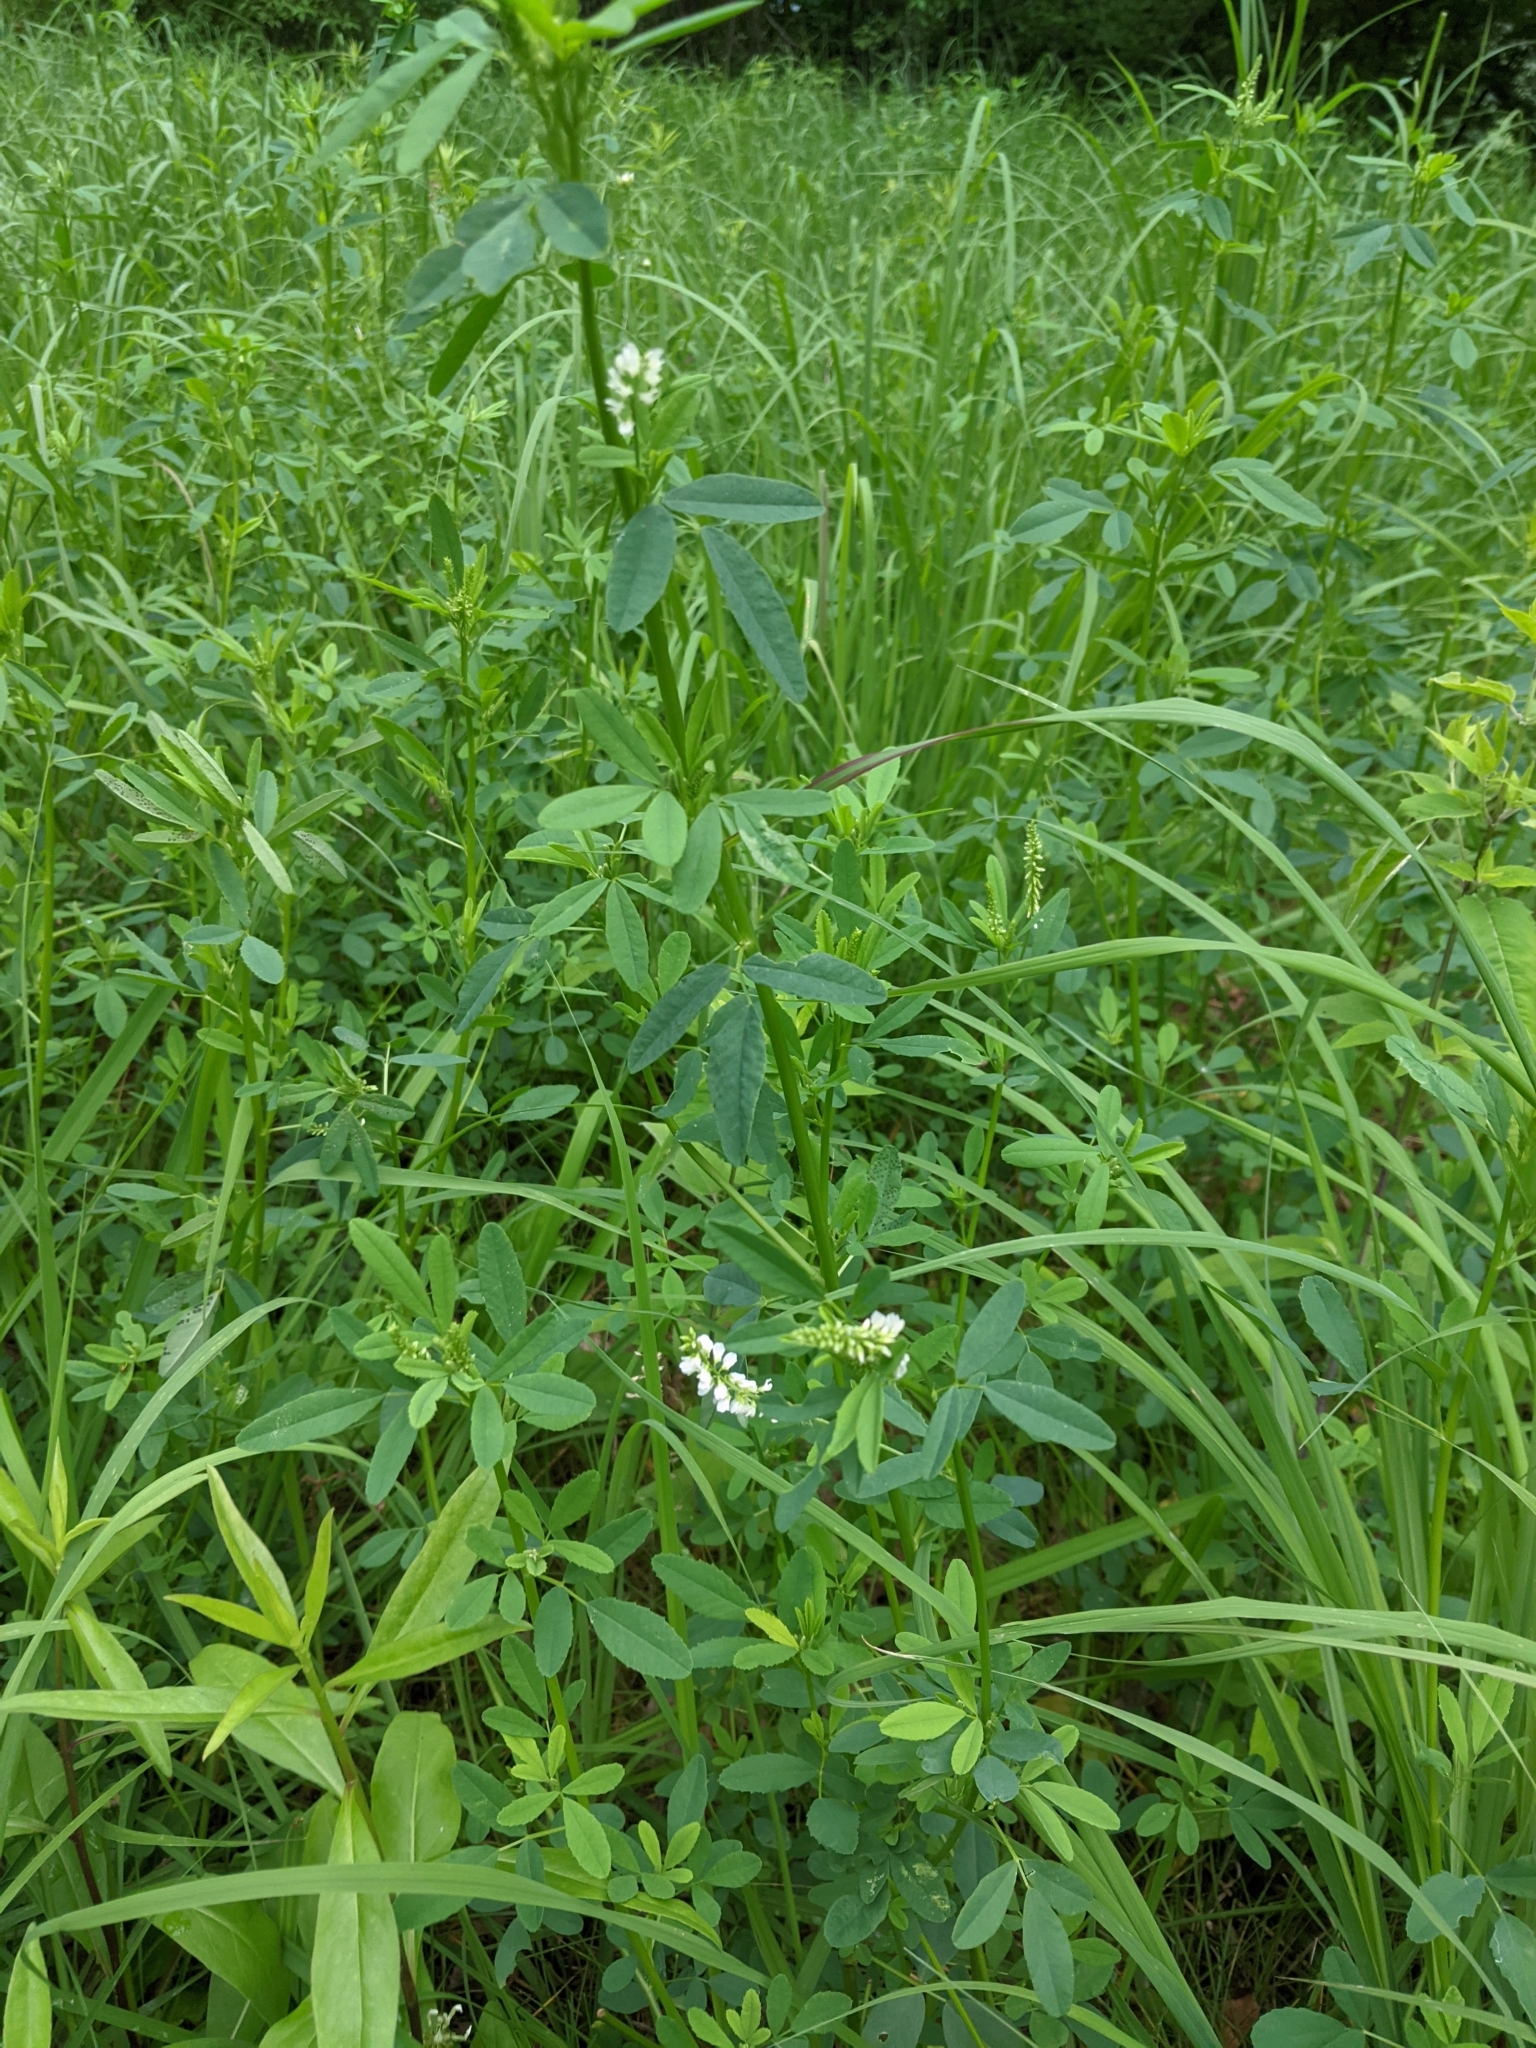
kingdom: Plantae
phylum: Tracheophyta
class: Magnoliopsida
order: Fabales
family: Fabaceae
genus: Melilotus
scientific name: Melilotus albus
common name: White melilot
